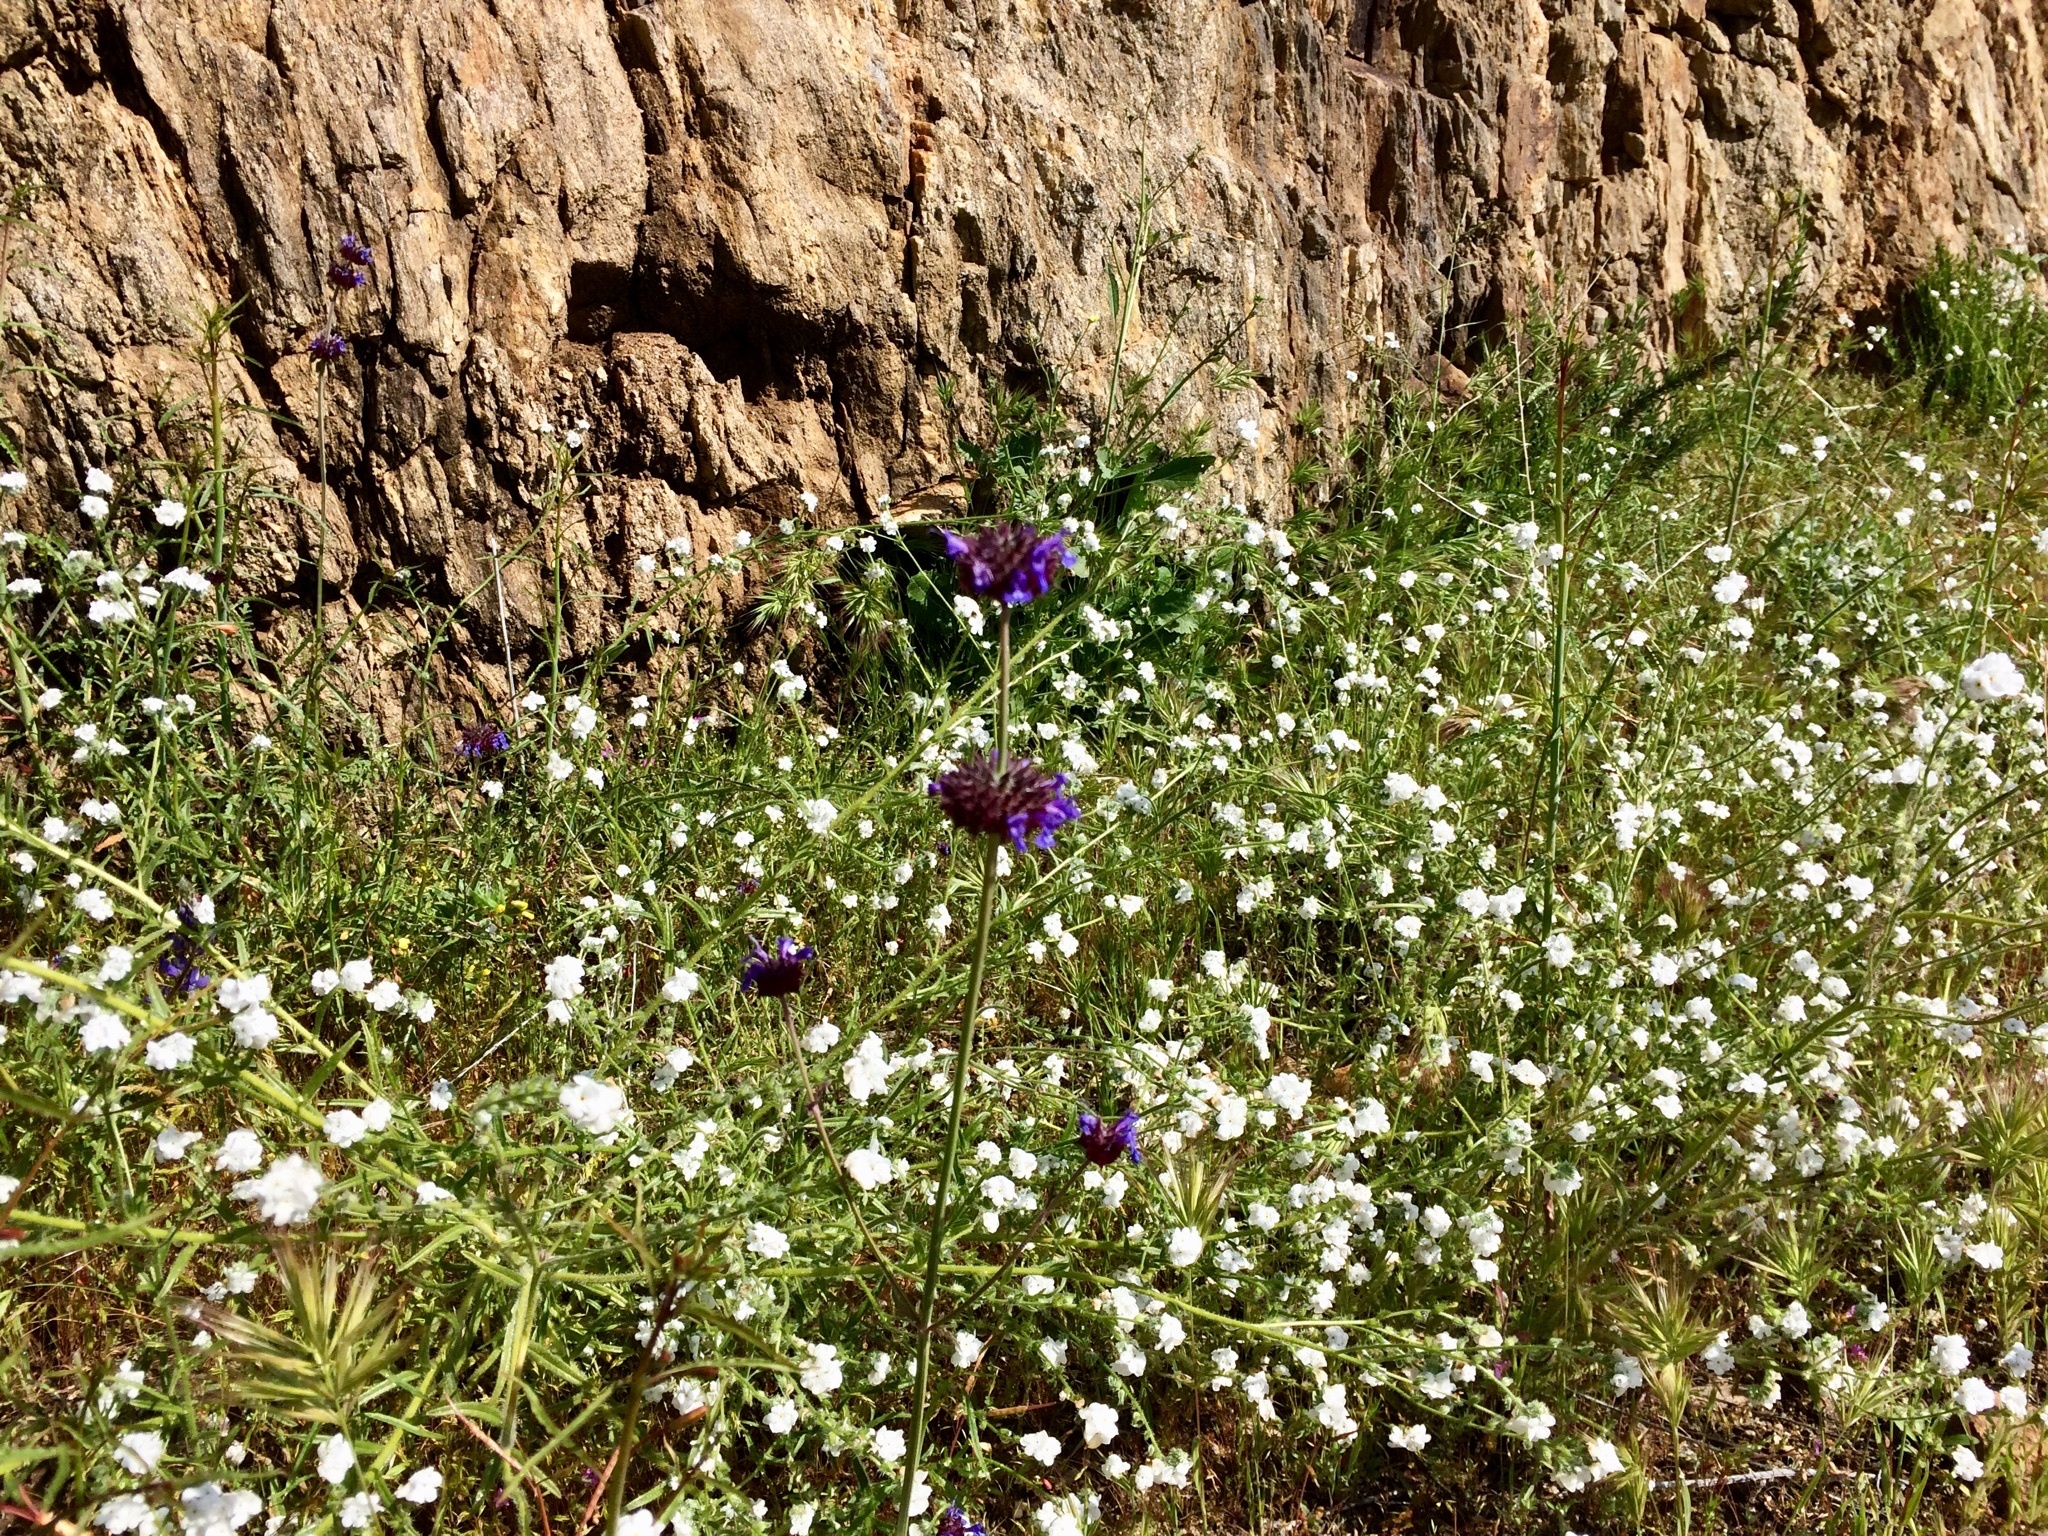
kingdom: Plantae
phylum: Tracheophyta
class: Magnoliopsida
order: Lamiales
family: Lamiaceae
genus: Salvia
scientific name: Salvia columbariae
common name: Chia
